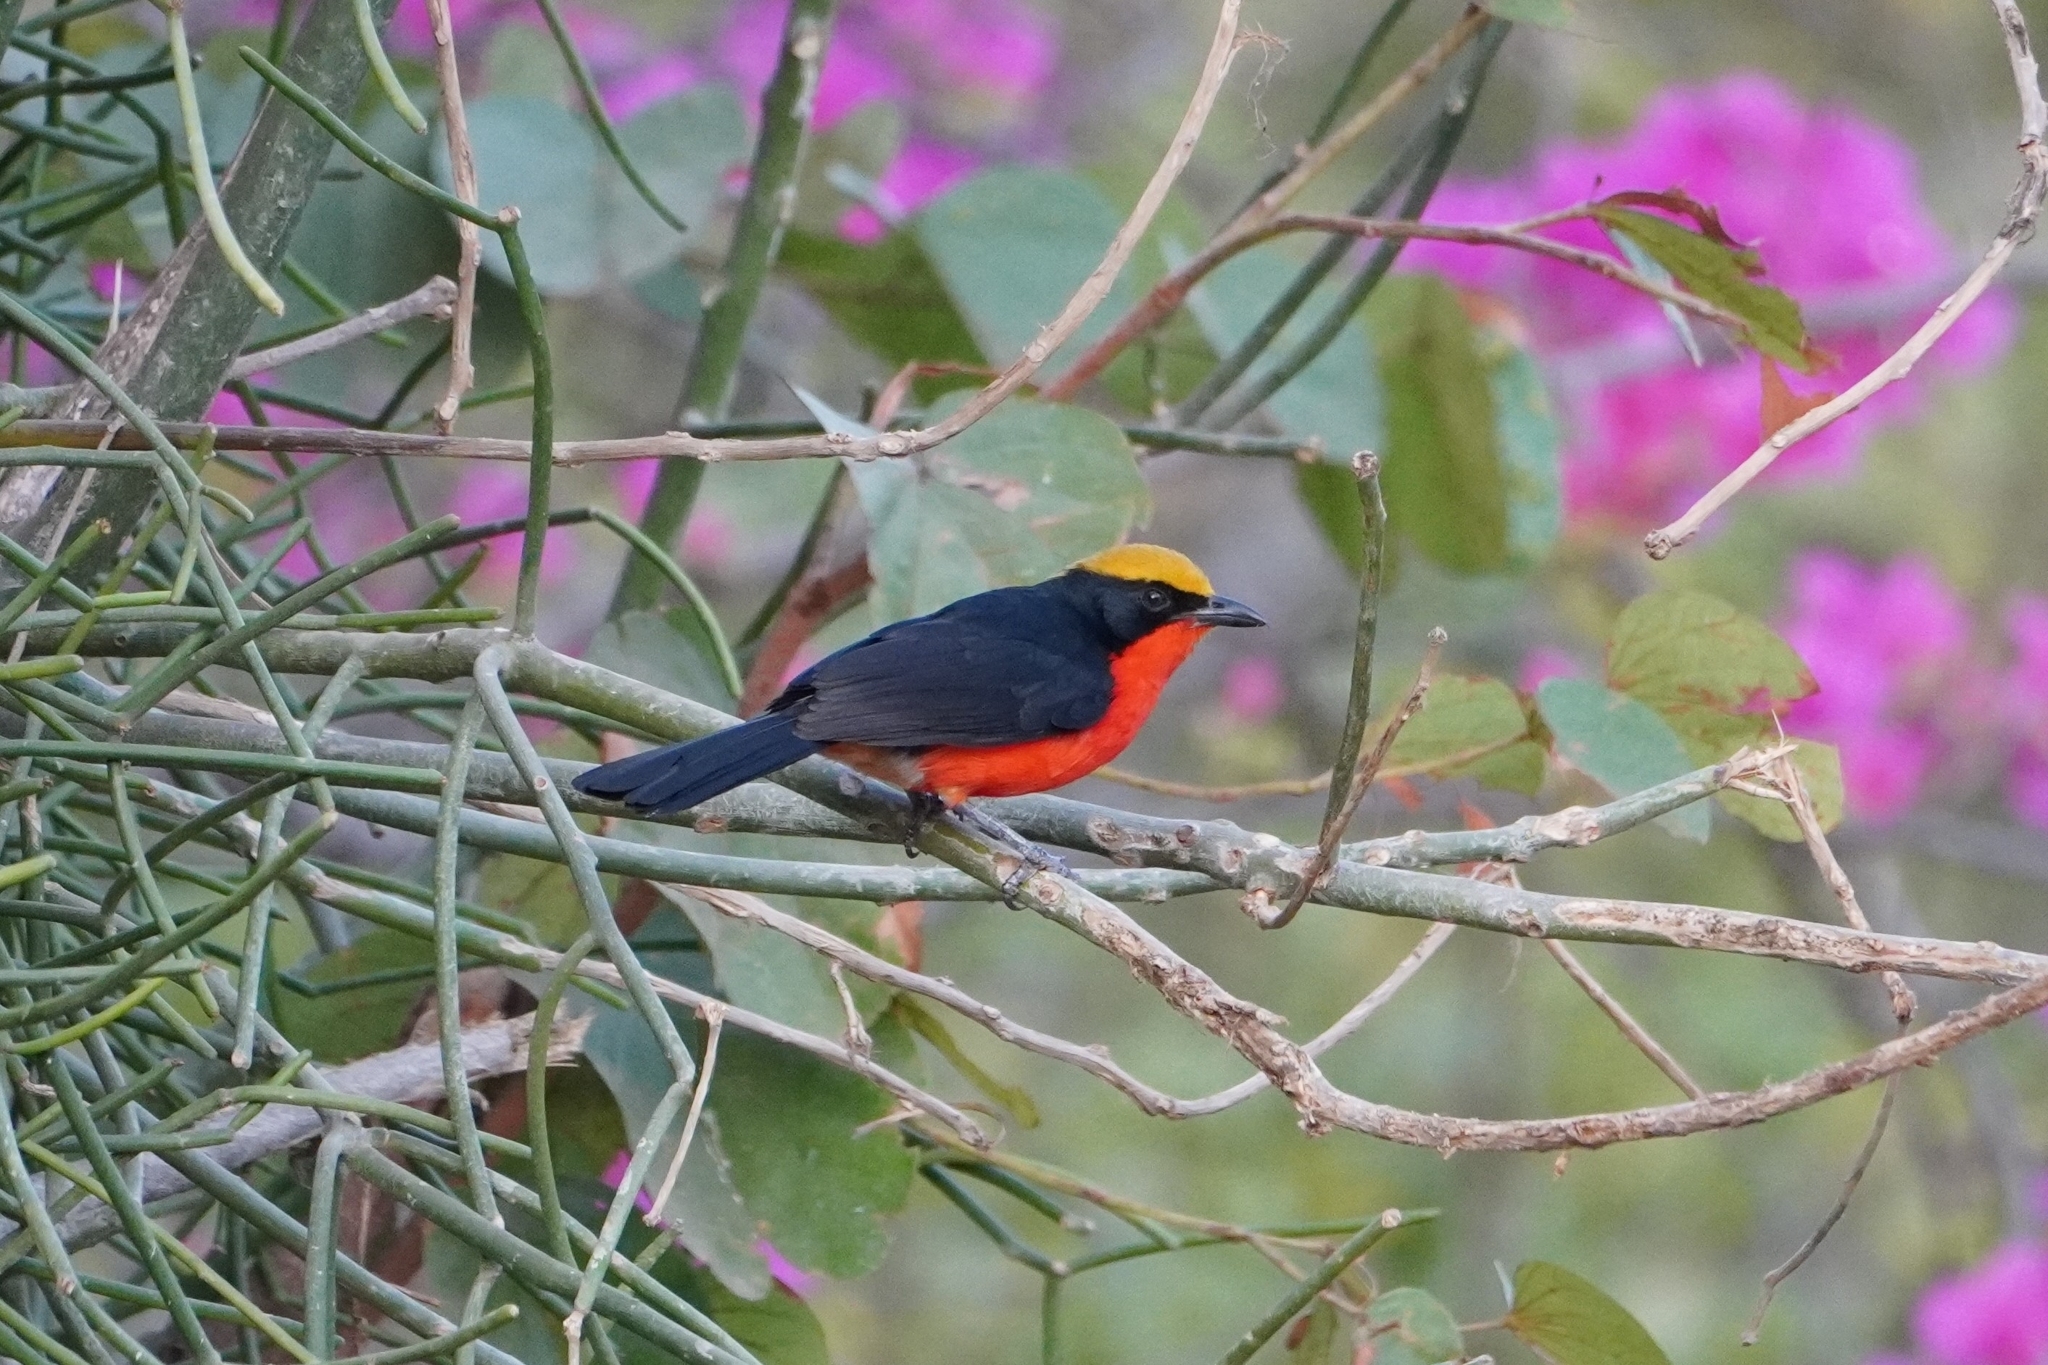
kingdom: Animalia
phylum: Chordata
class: Aves
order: Passeriformes
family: Malaconotidae
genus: Laniarius
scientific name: Laniarius barbarus
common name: Yellow-crowned gonolek
